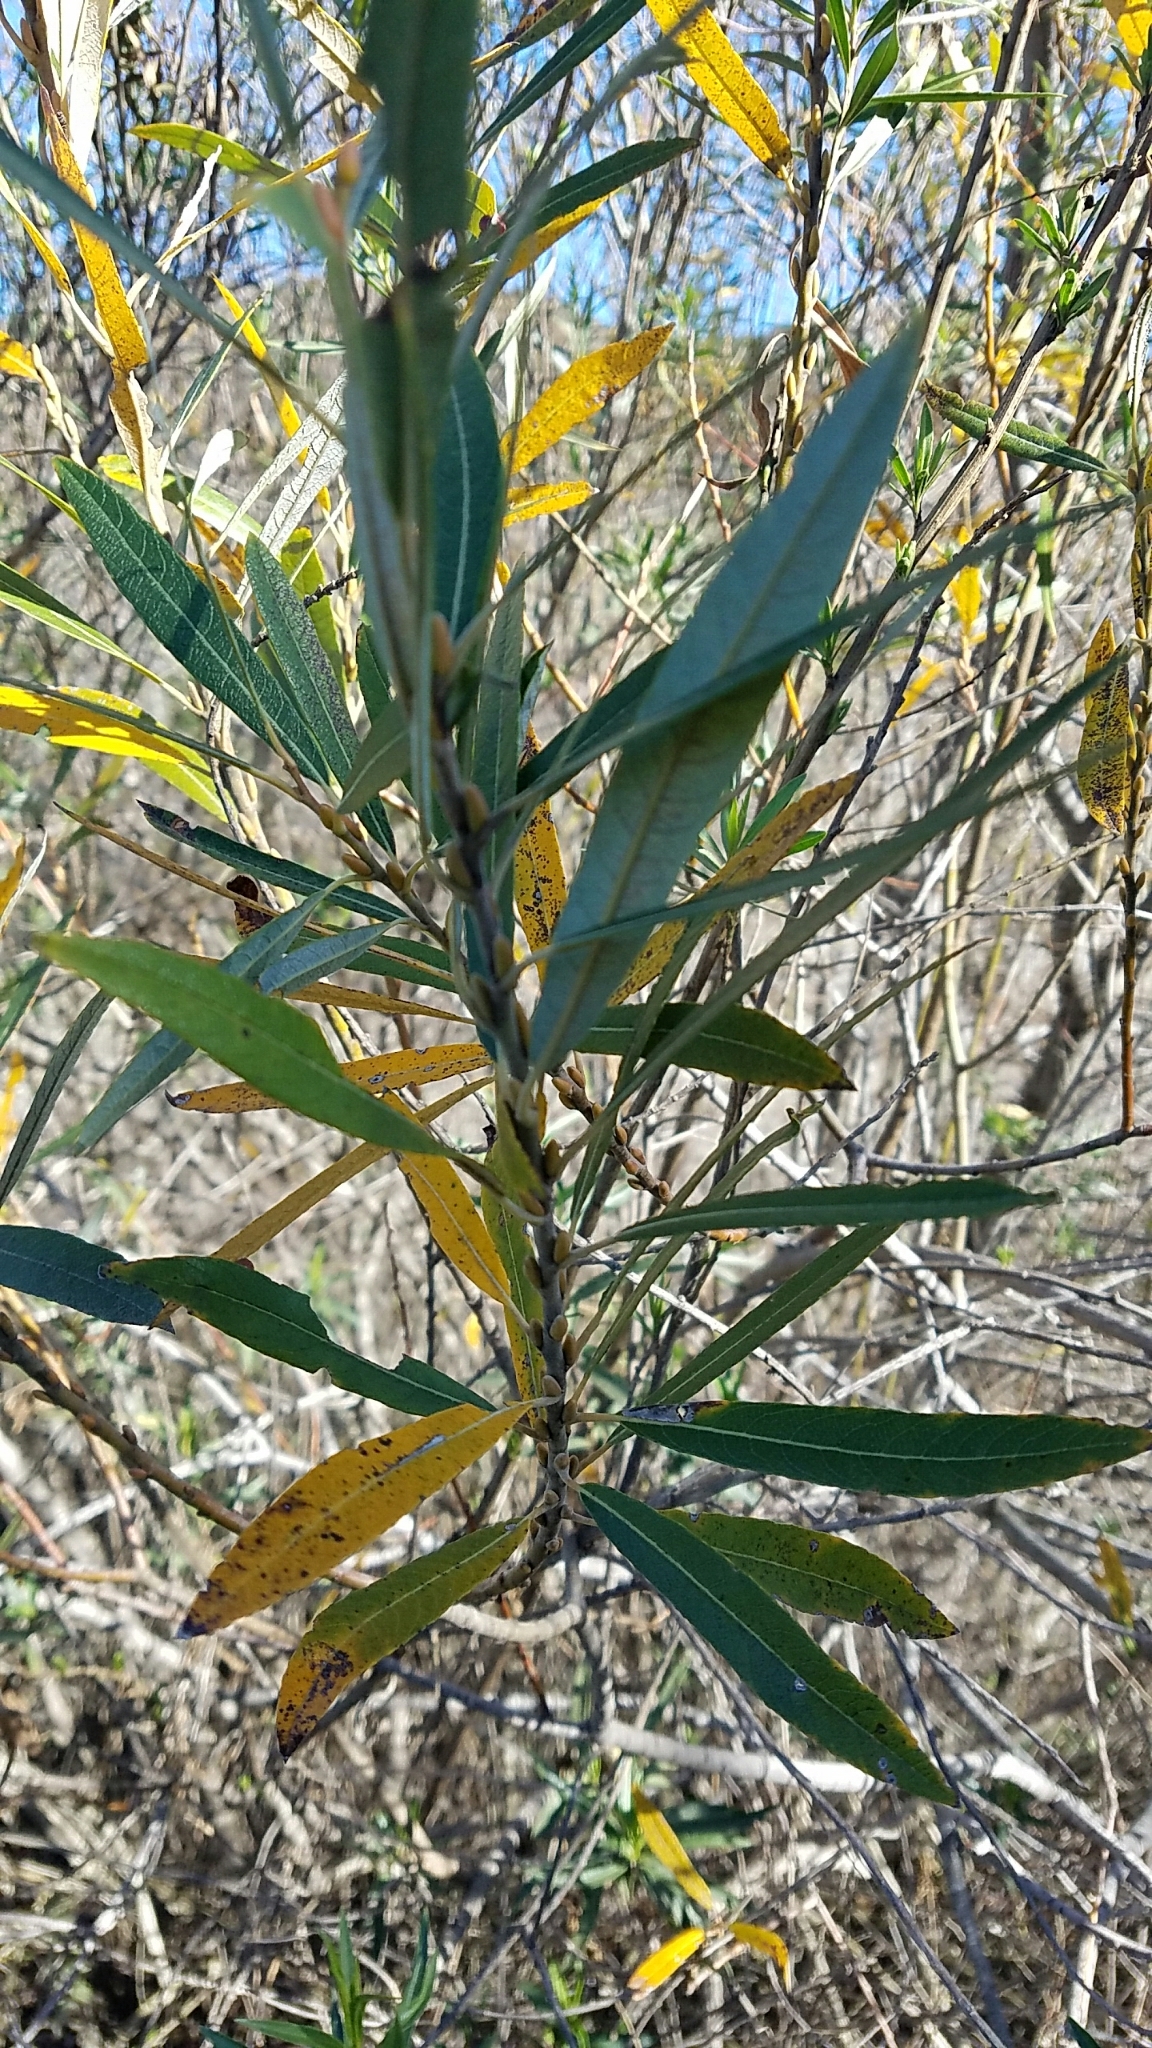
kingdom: Plantae
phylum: Tracheophyta
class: Magnoliopsida
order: Malpighiales
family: Salicaceae
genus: Salix
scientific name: Salix lasiolepis
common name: Arroyo willow
